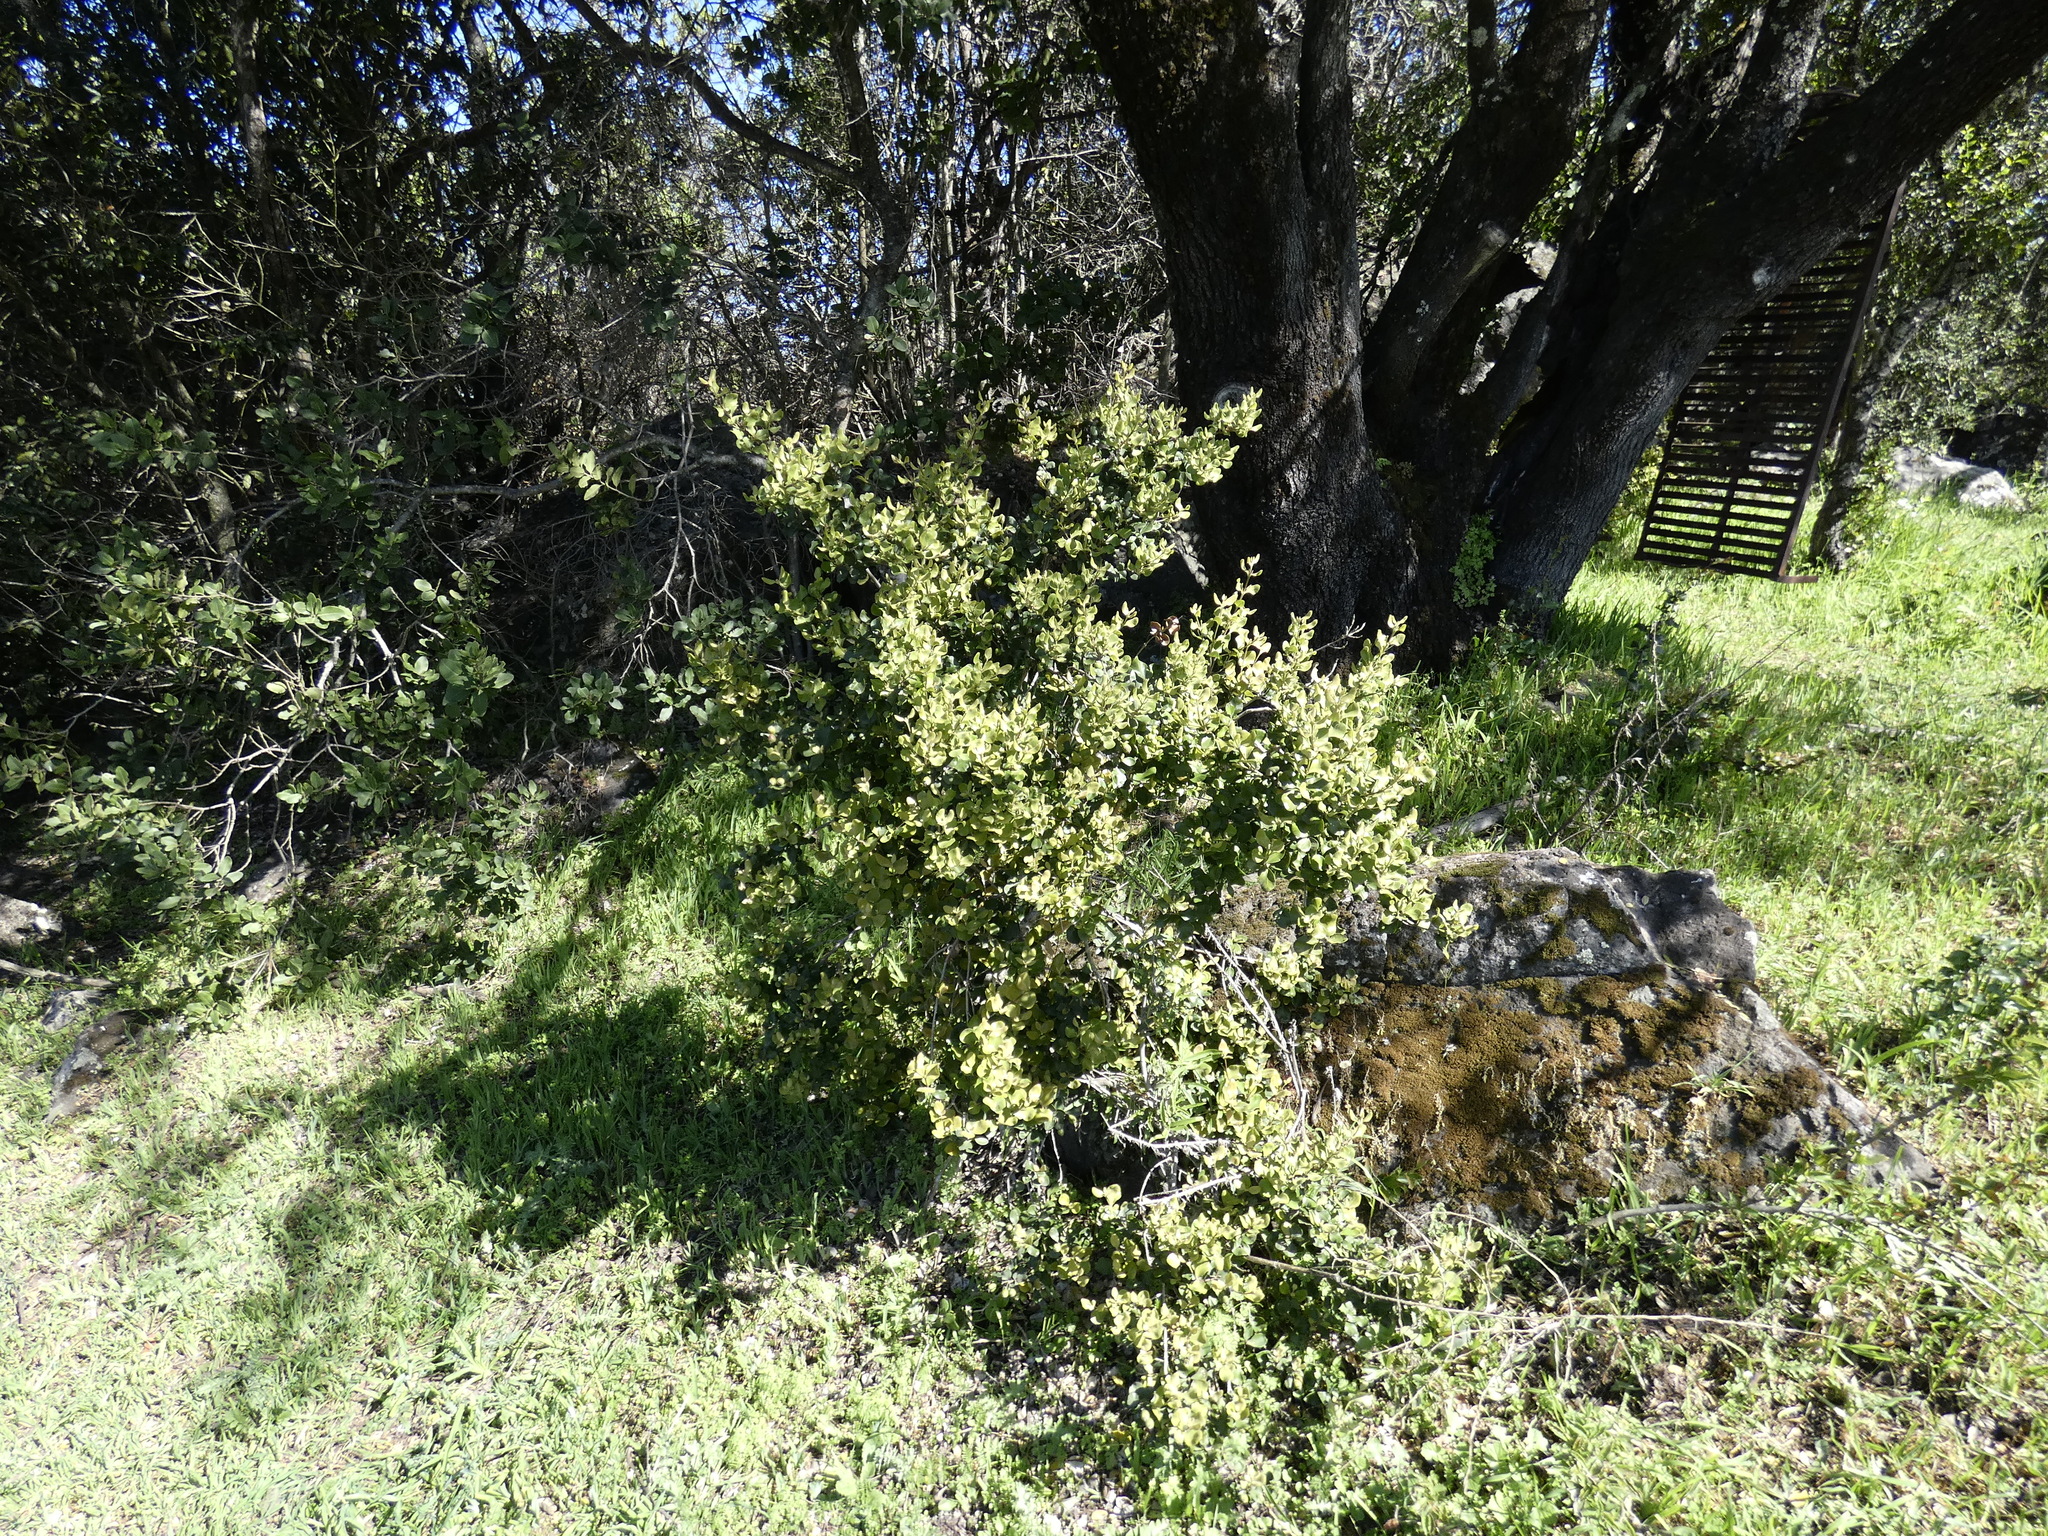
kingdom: Plantae
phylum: Tracheophyta
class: Magnoliopsida
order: Myrtales
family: Myrtaceae
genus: Myrceugenia
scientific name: Myrceugenia colchaguensis
